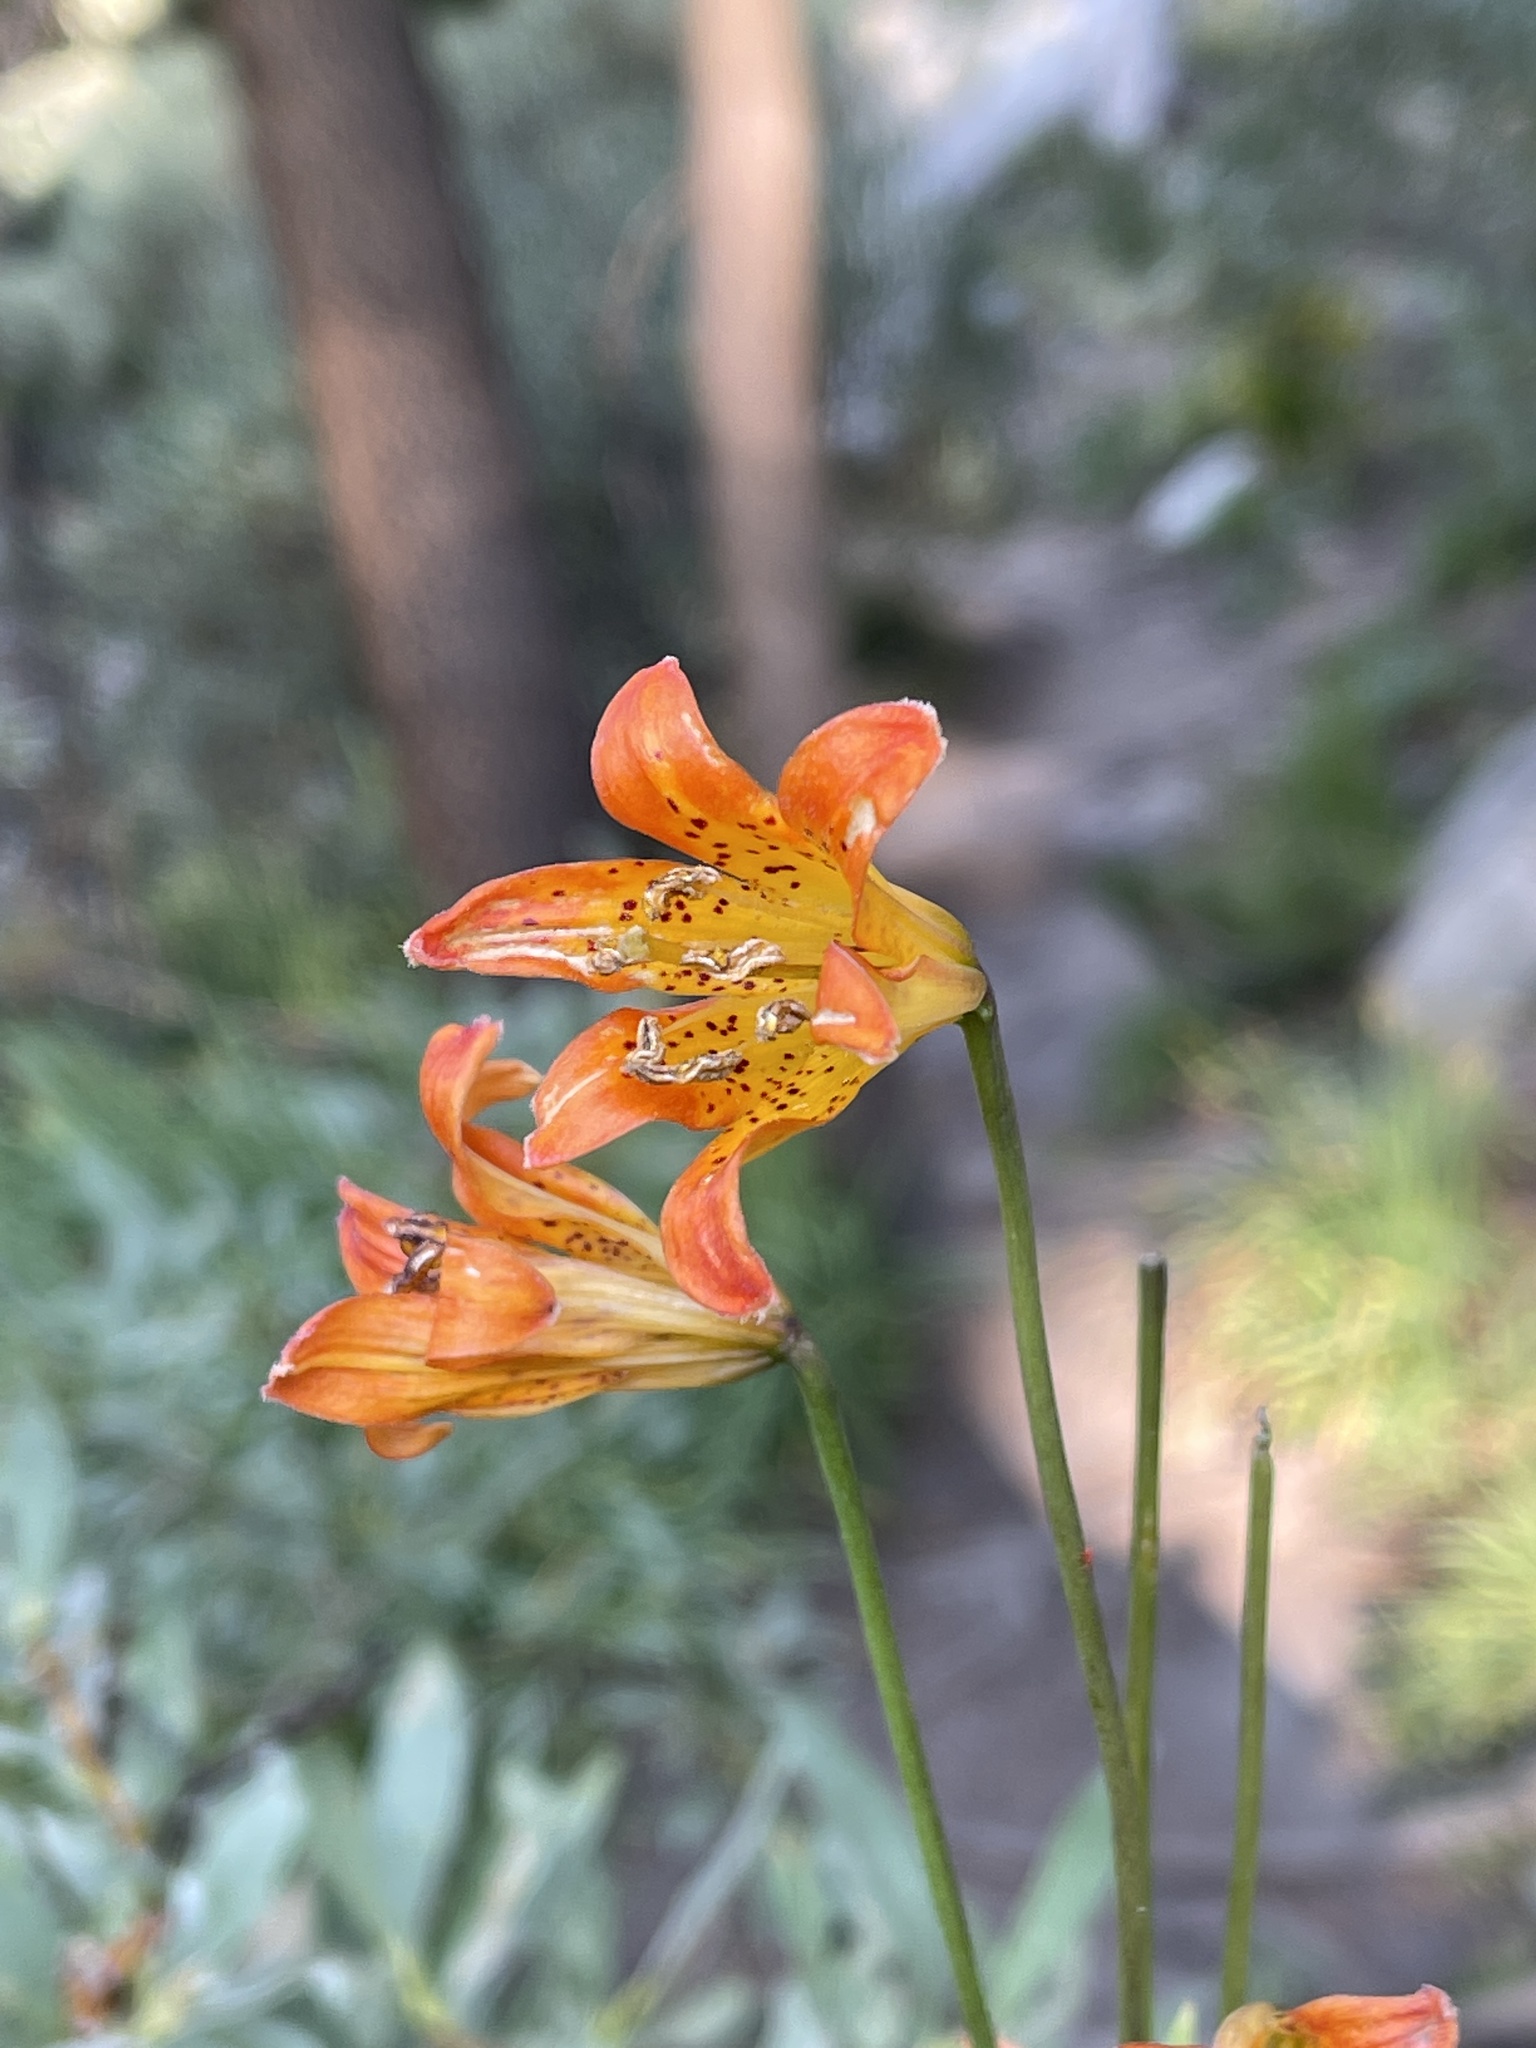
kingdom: Plantae
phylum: Tracheophyta
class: Liliopsida
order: Liliales
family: Liliaceae
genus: Lilium
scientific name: Lilium parvum
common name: Alpine lily
